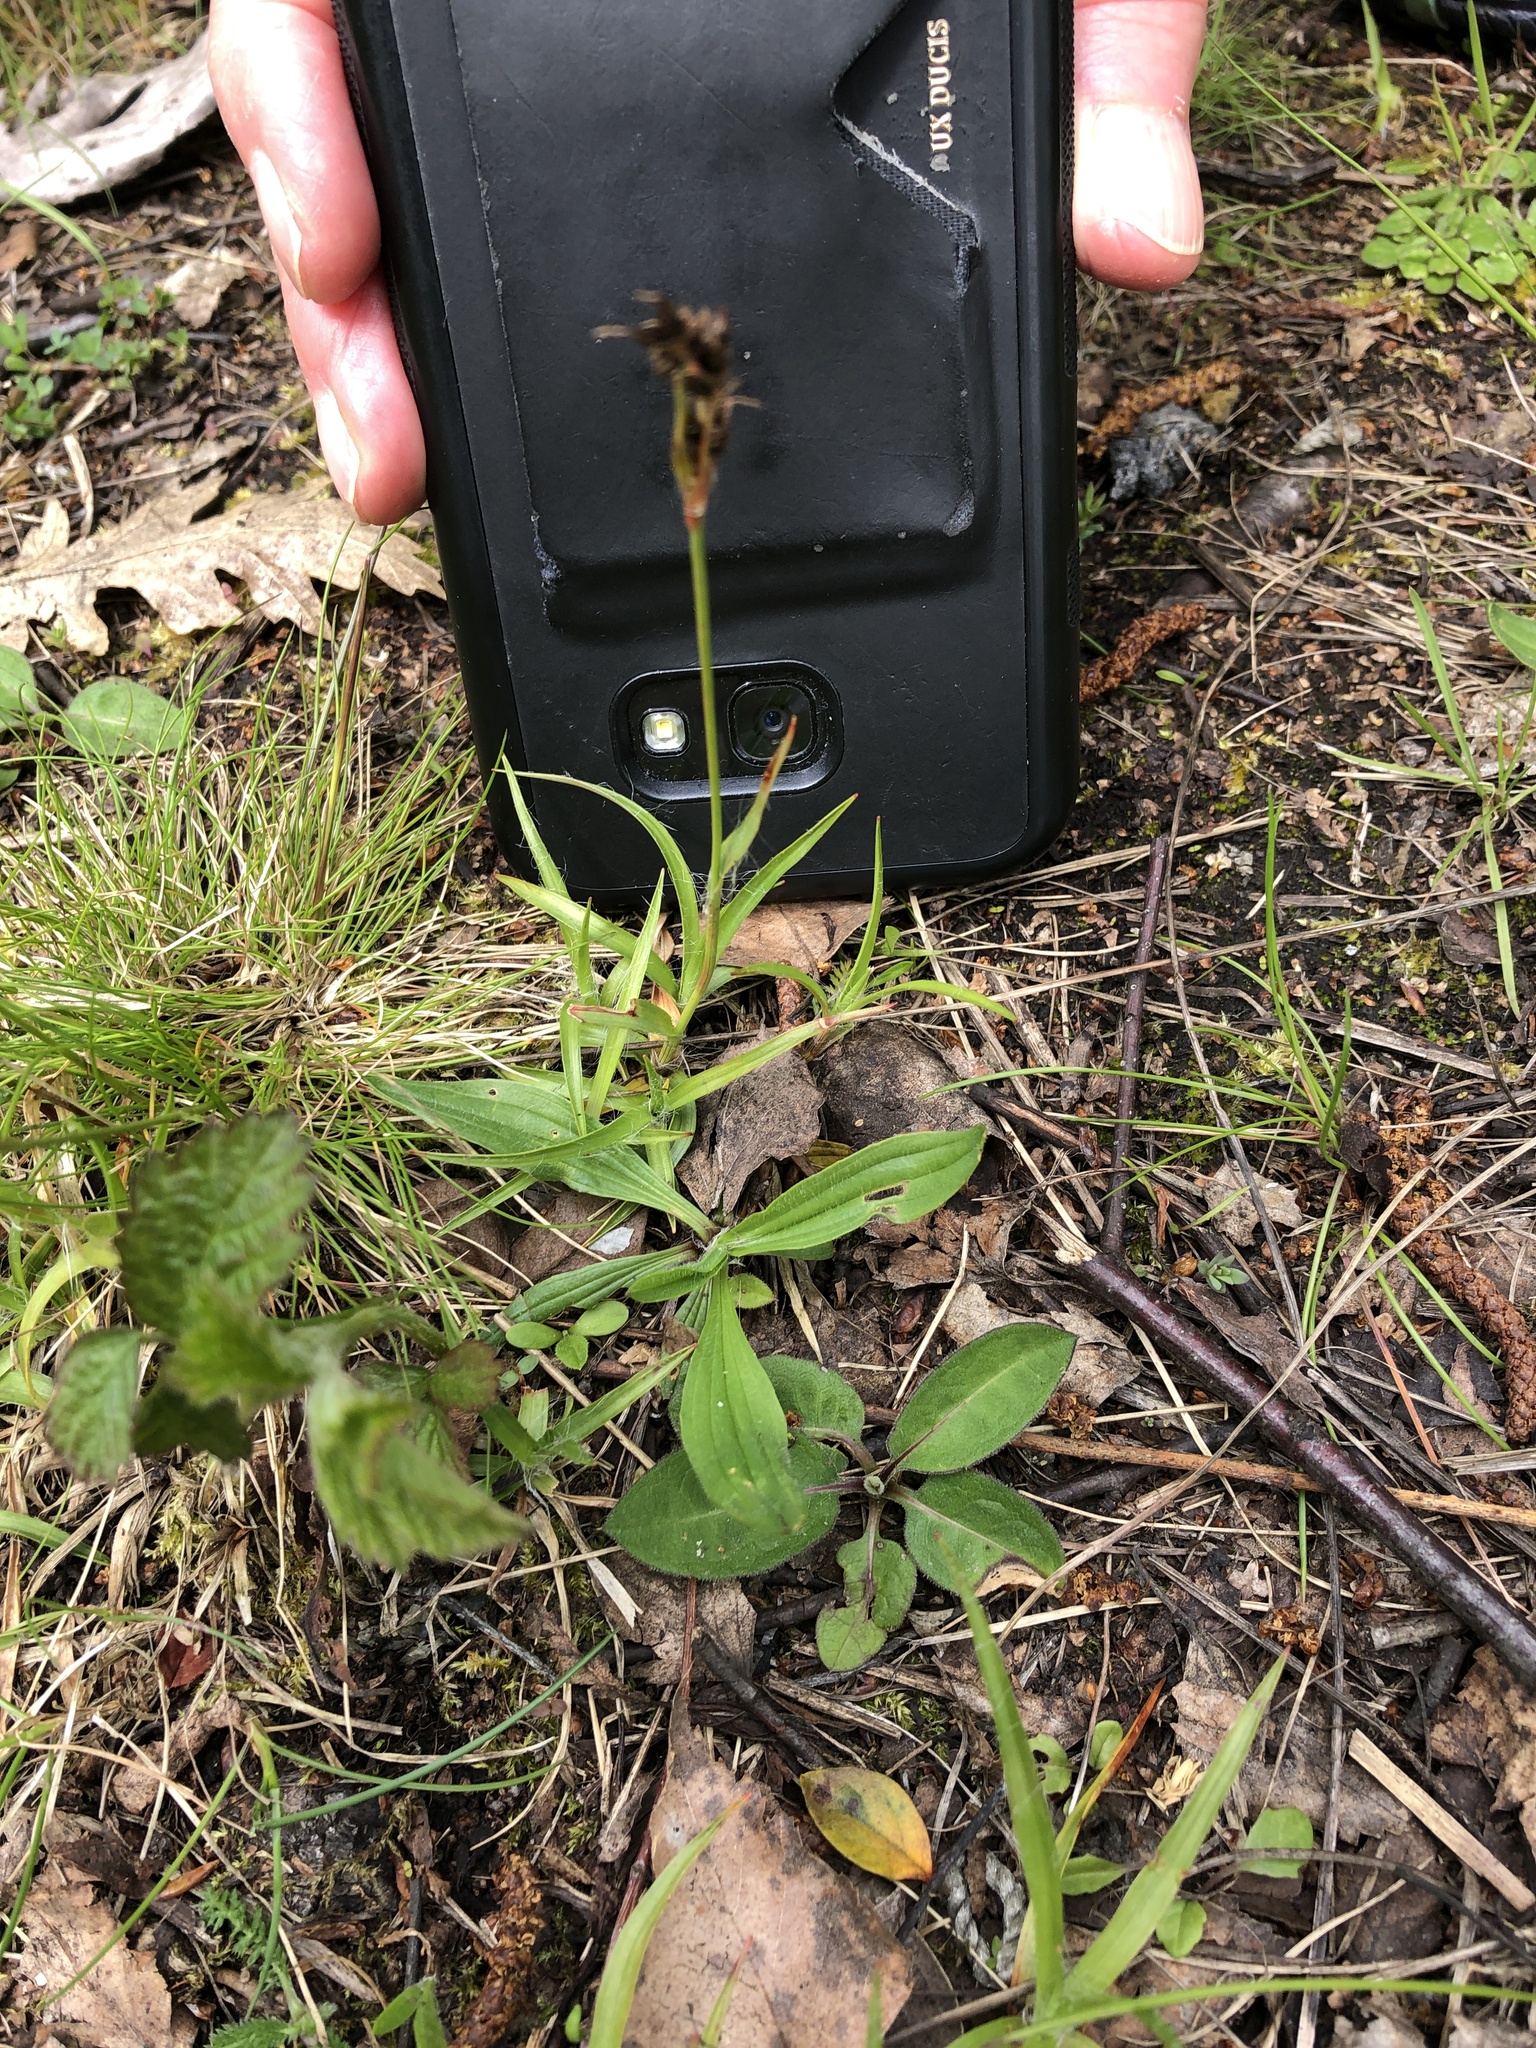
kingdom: Plantae
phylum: Tracheophyta
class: Liliopsida
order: Poales
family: Juncaceae
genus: Luzula
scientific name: Luzula campestris
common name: Field wood-rush
